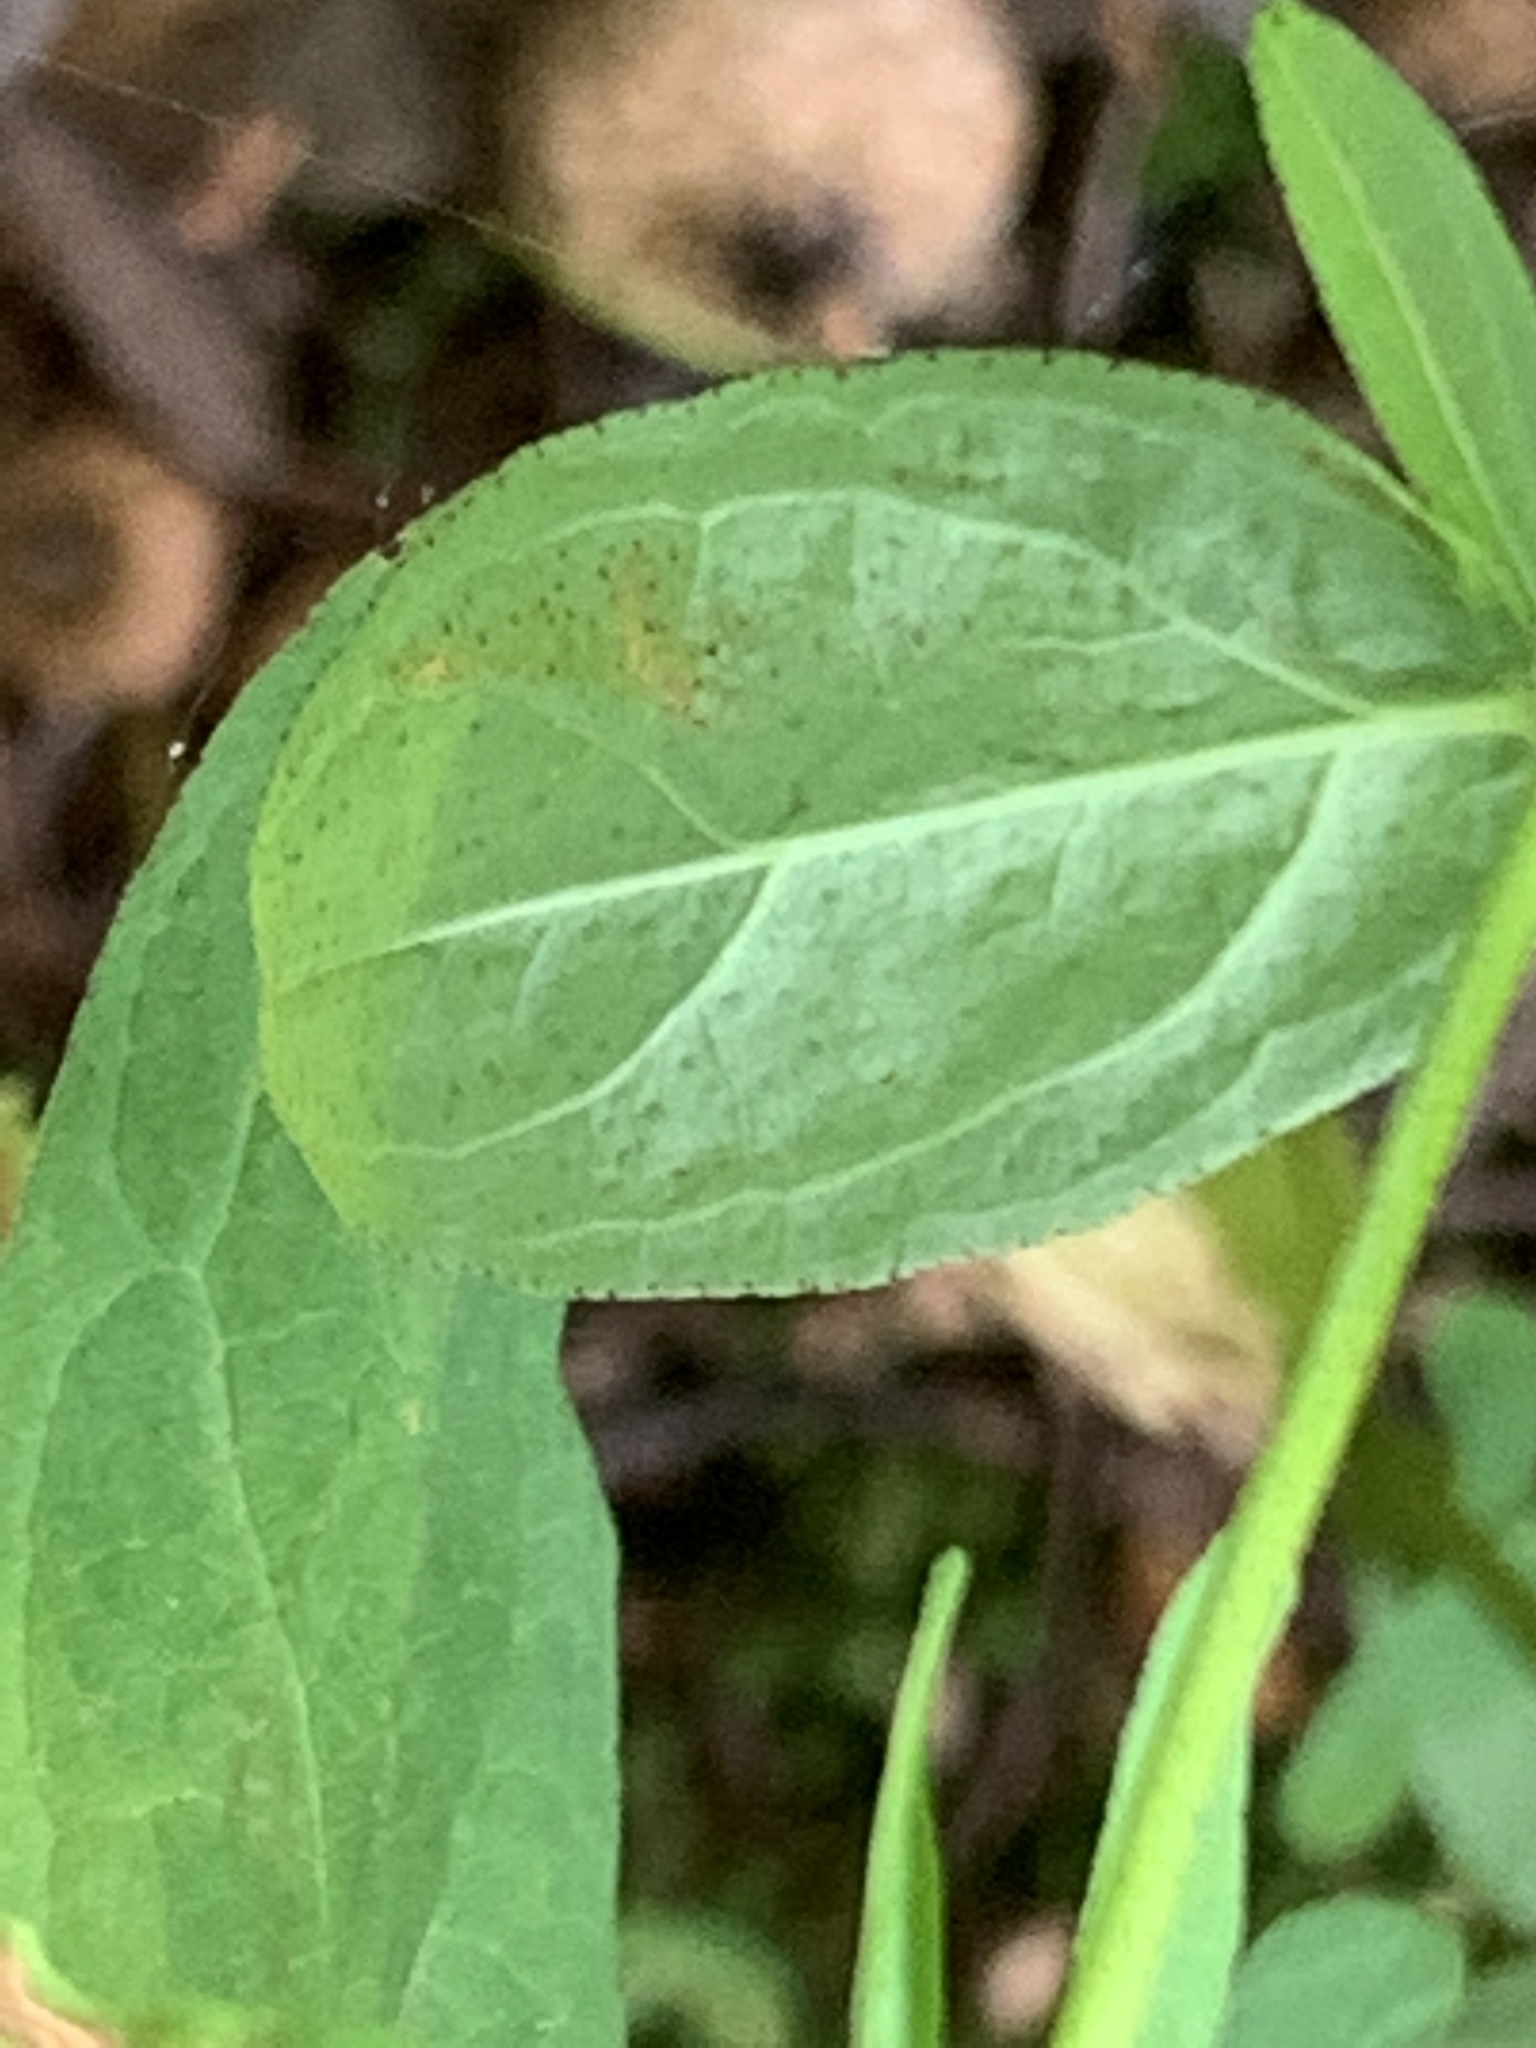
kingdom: Plantae
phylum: Tracheophyta
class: Magnoliopsida
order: Malpighiales
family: Hypericaceae
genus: Hypericum
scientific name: Hypericum punctatum
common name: Spotted st. john's-wort
